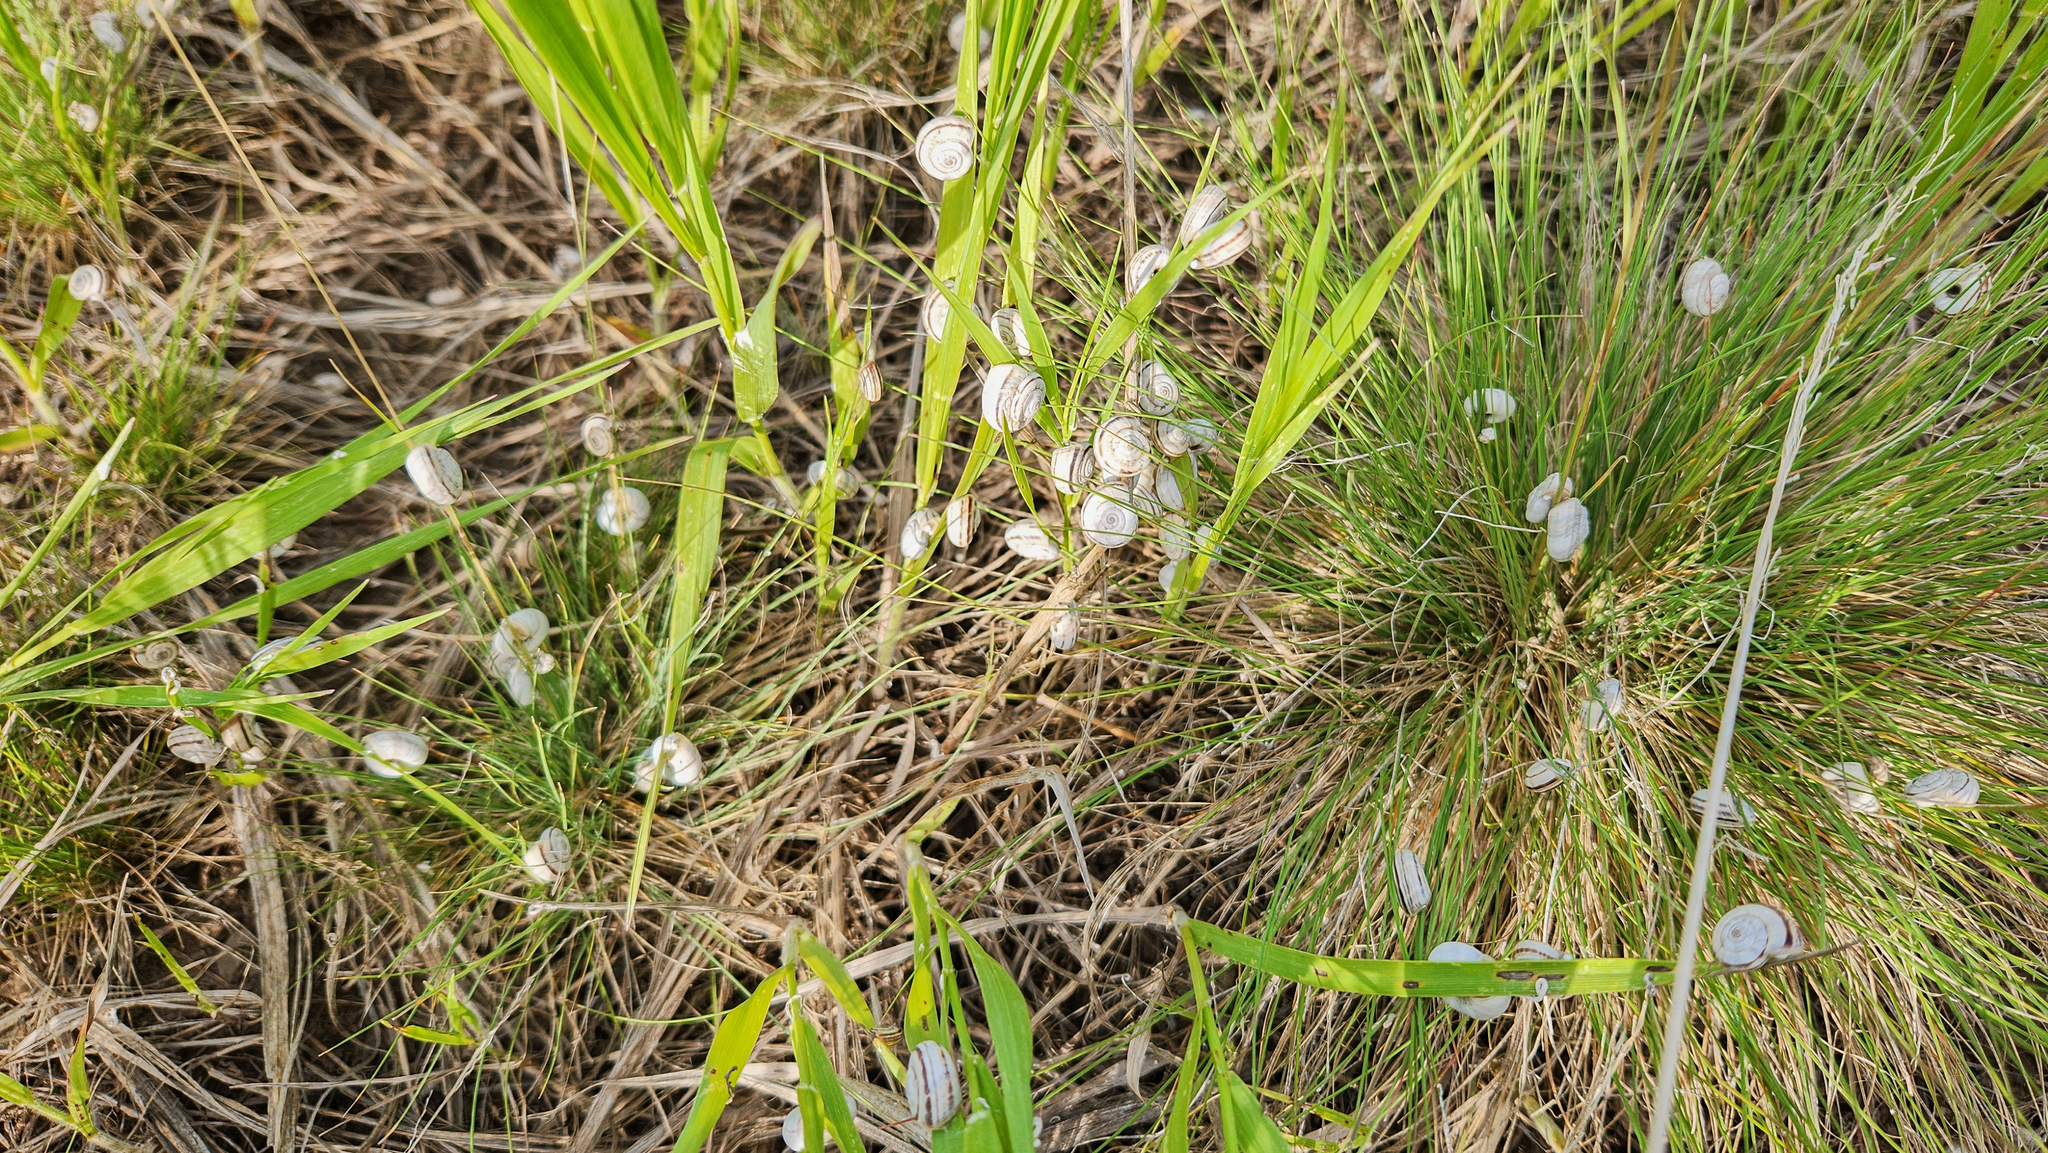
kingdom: Animalia
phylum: Mollusca
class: Gastropoda
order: Stylommatophora
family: Geomitridae
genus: Xerolenta
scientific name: Xerolenta obvia
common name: White heath snail
